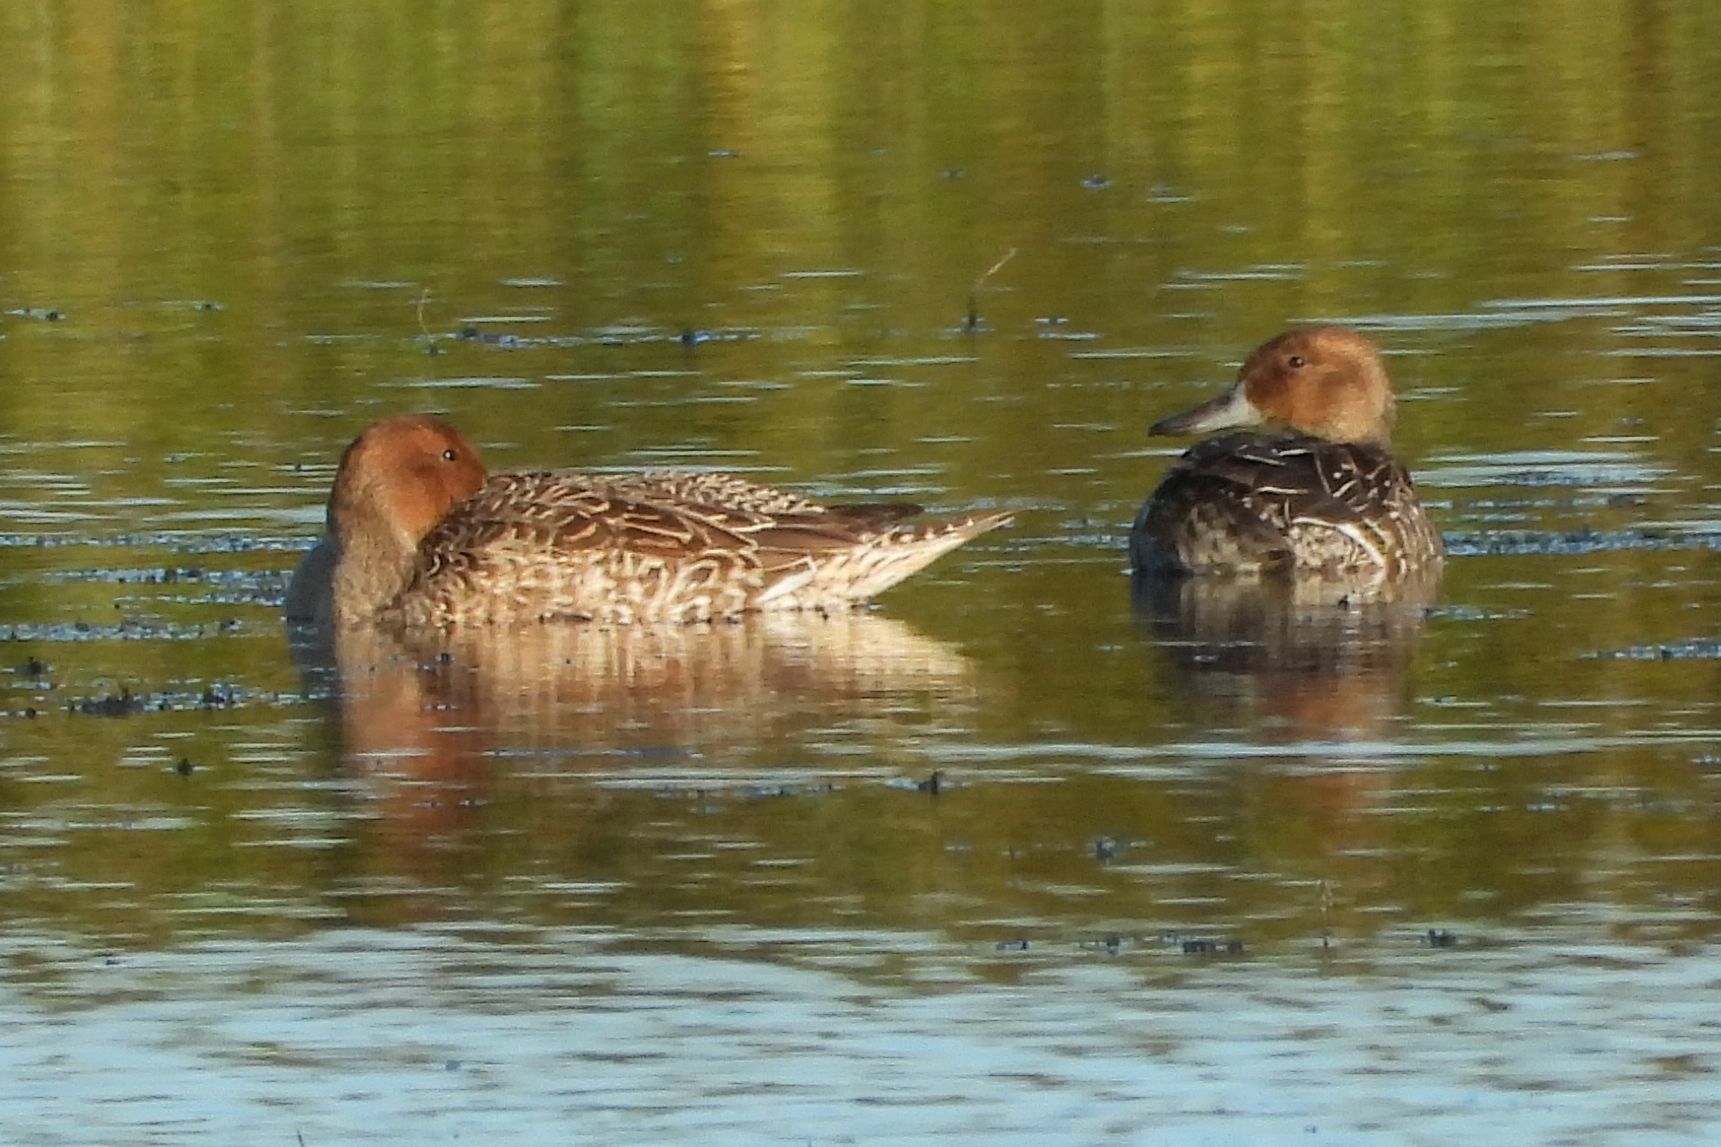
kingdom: Animalia
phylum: Chordata
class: Aves
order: Anseriformes
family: Anatidae
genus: Anas
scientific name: Anas acuta
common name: Northern pintail
